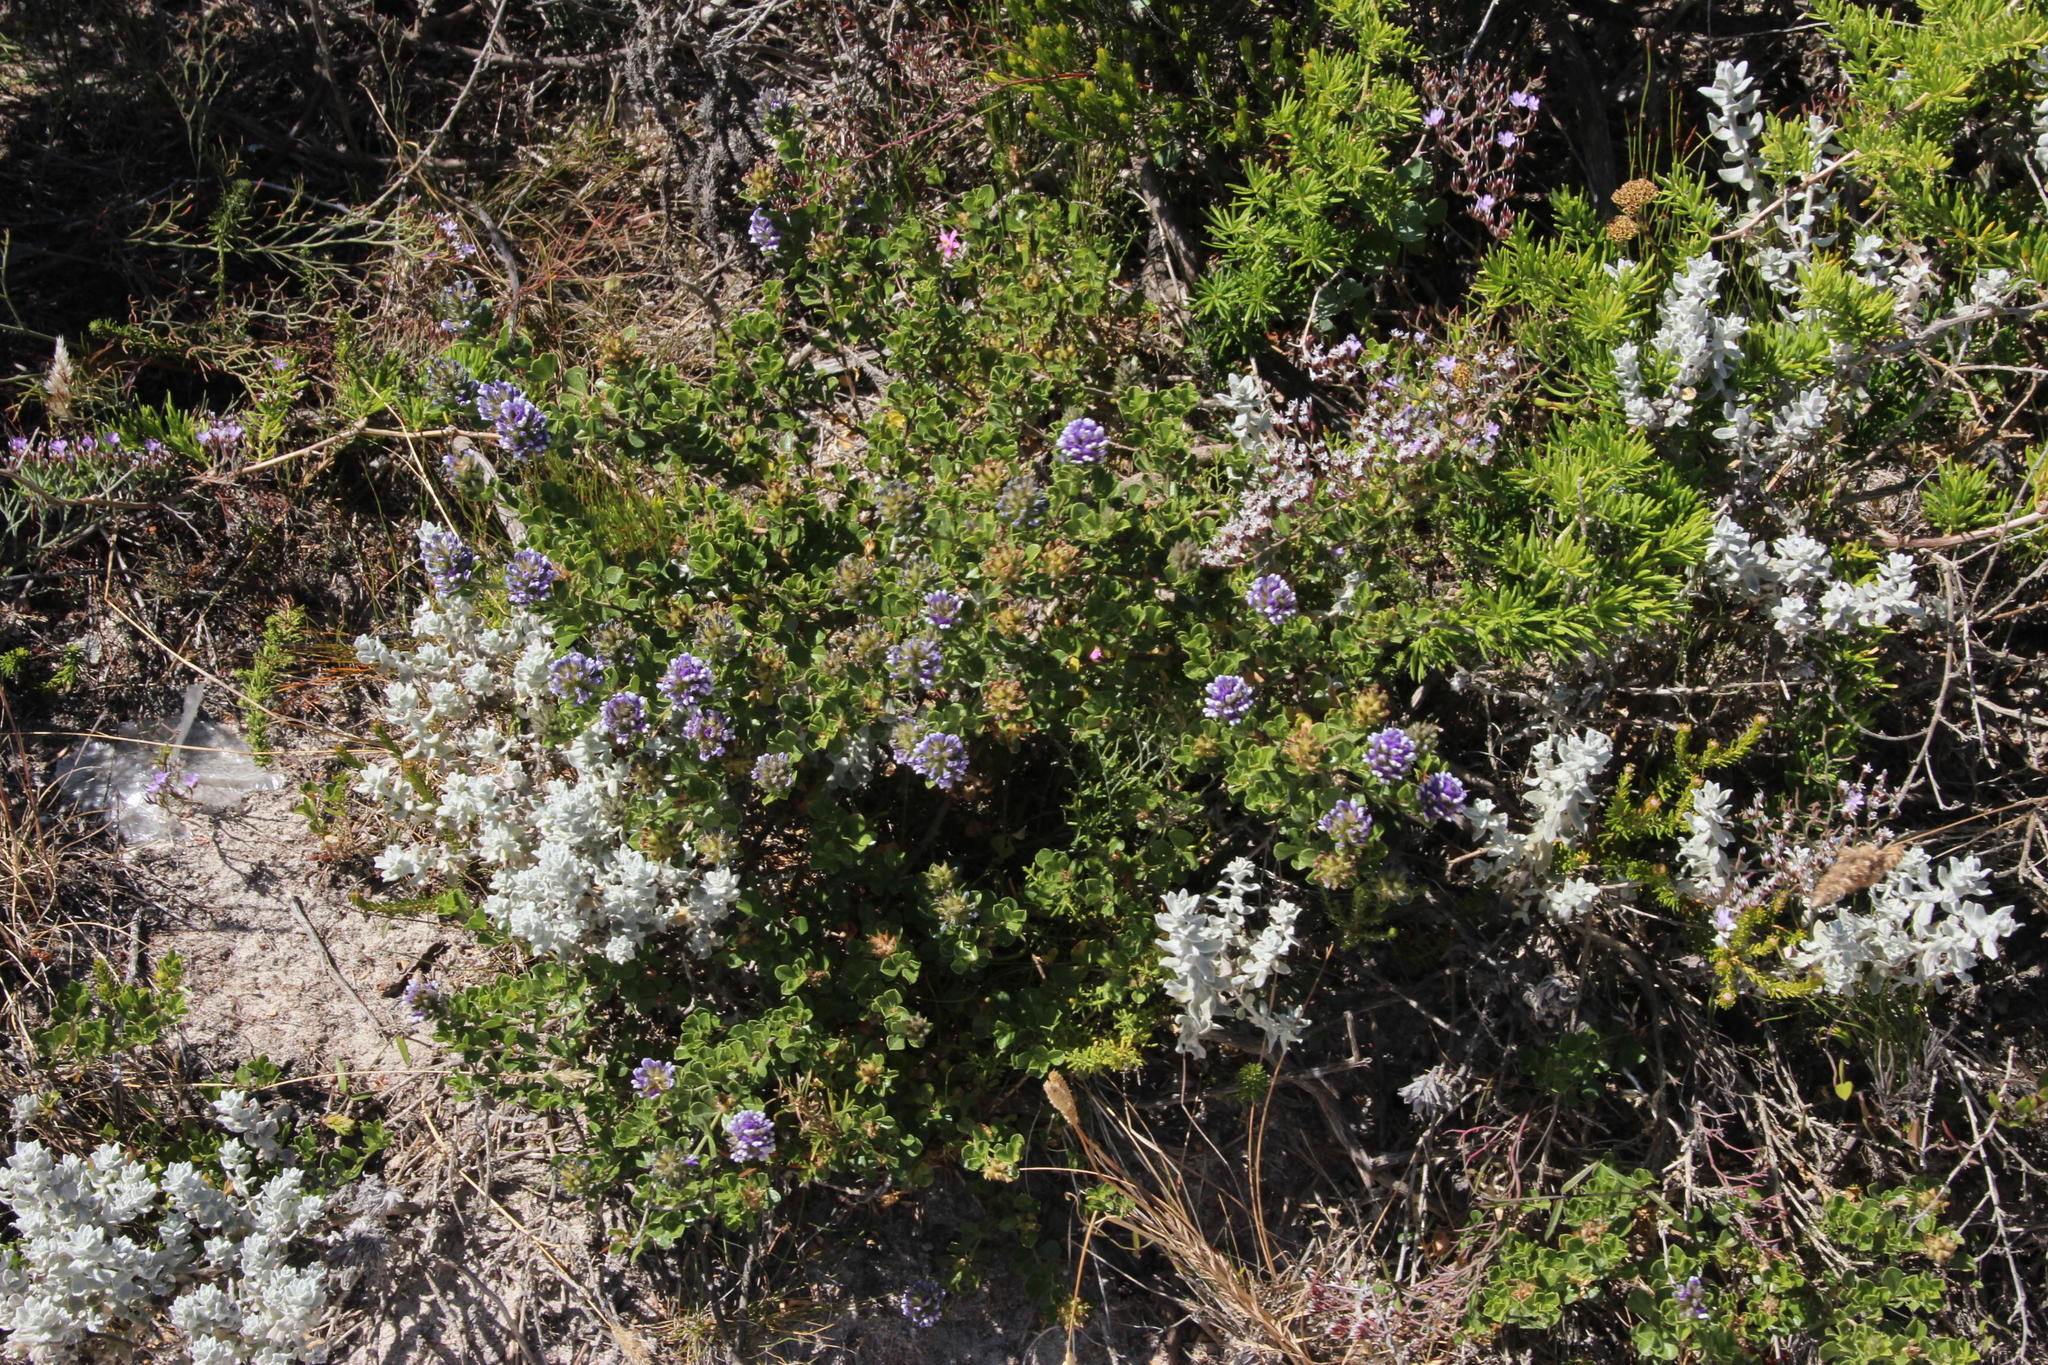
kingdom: Plantae
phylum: Tracheophyta
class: Magnoliopsida
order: Fabales
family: Fabaceae
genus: Psoralea
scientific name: Psoralea bracteolata
